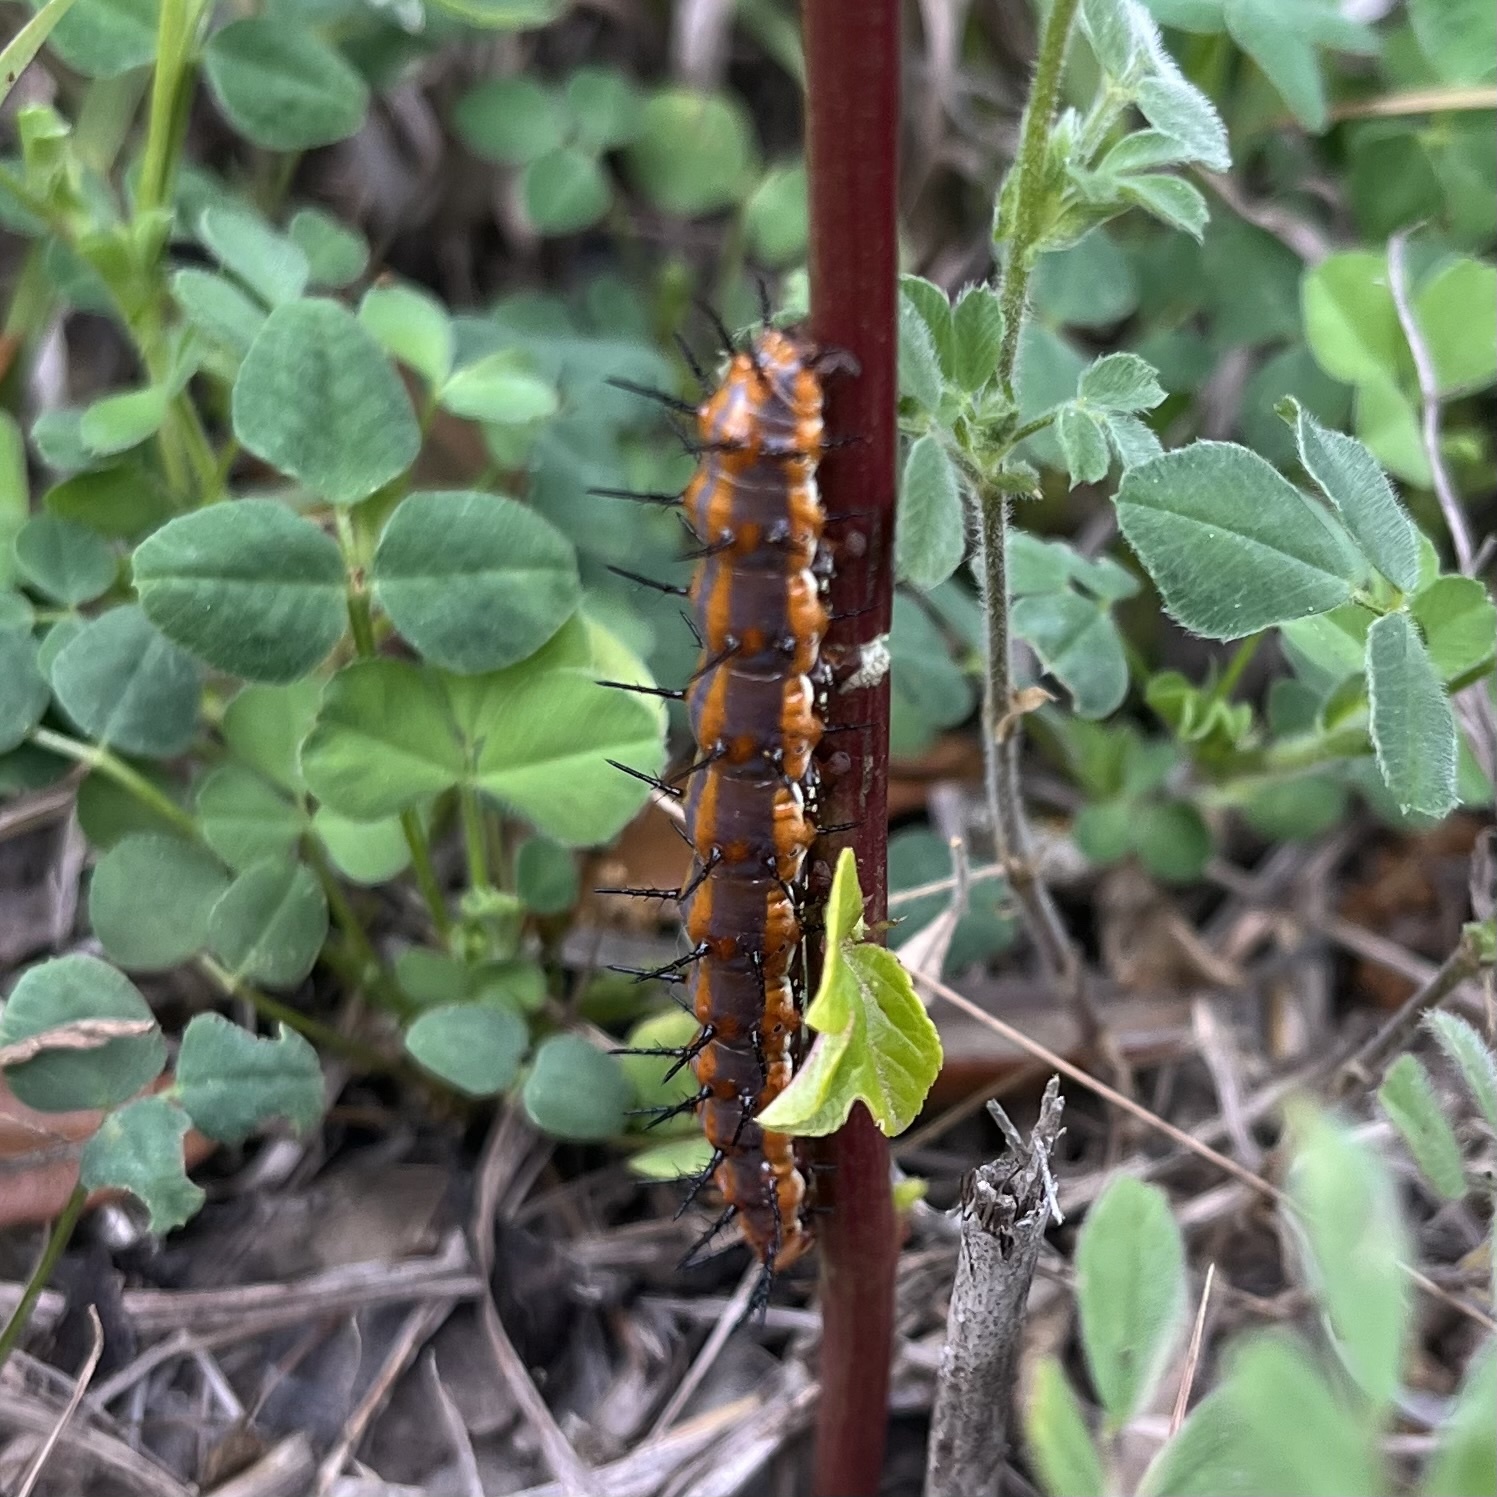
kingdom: Animalia
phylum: Arthropoda
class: Insecta
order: Lepidoptera
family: Nymphalidae
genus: Dione
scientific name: Dione vanillae
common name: Gulf fritillary
